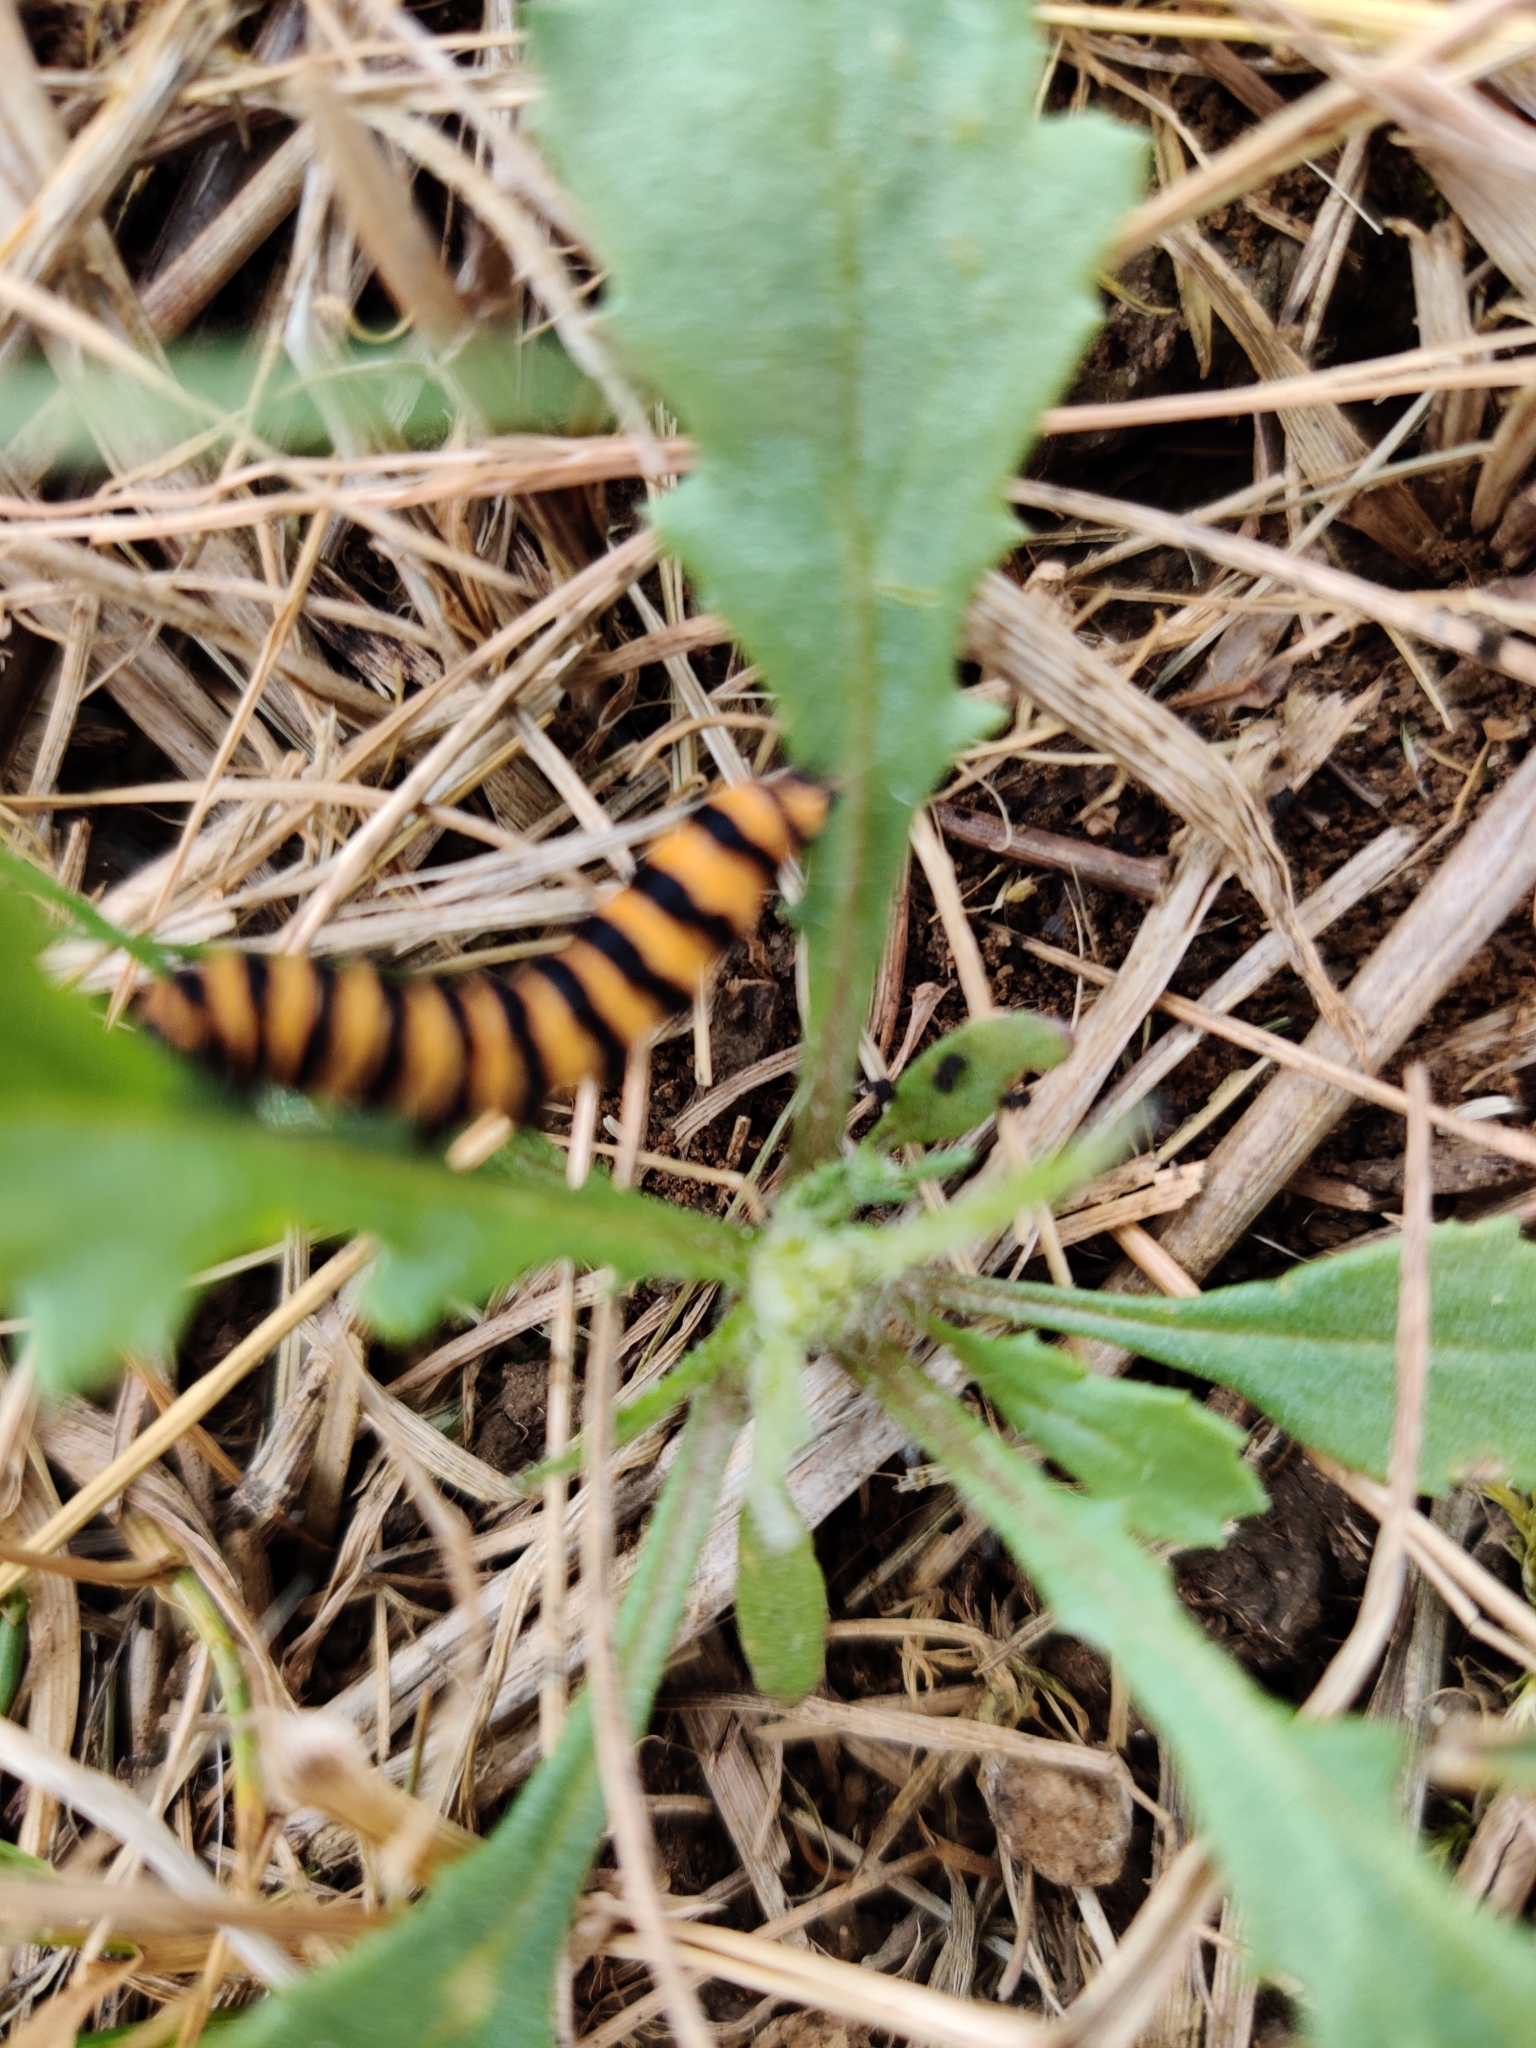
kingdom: Animalia
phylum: Arthropoda
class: Insecta
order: Lepidoptera
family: Erebidae
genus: Tyria
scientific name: Tyria jacobaeae
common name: Cinnabar
